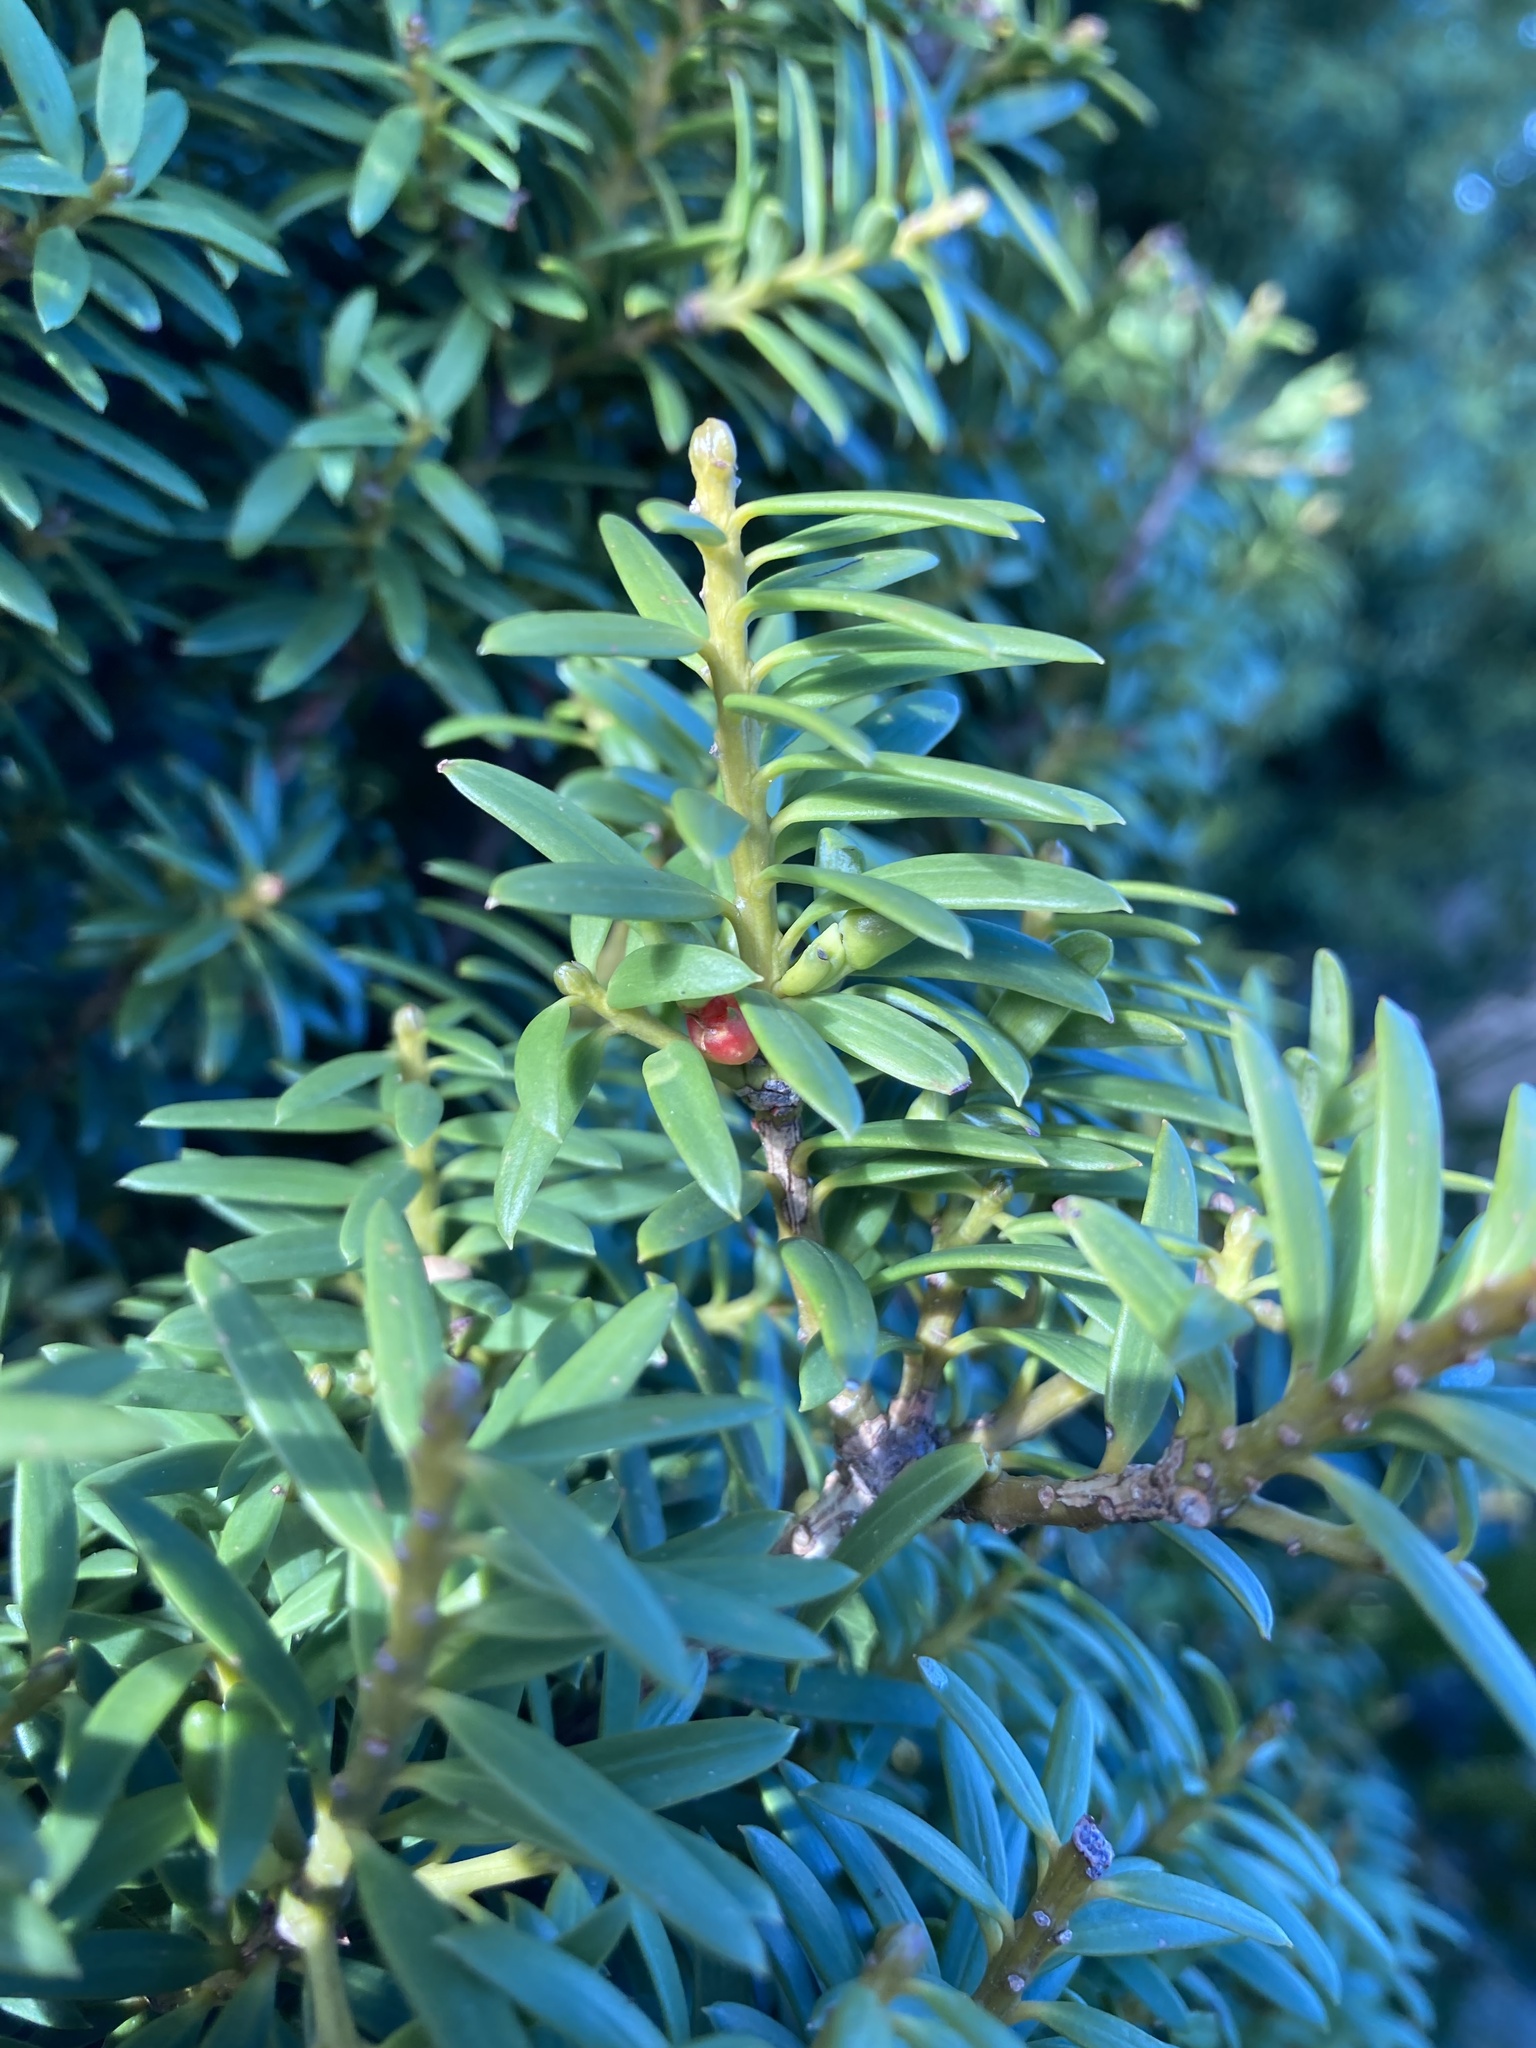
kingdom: Plantae
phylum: Tracheophyta
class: Pinopsida
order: Pinales
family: Podocarpaceae
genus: Podocarpus
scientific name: Podocarpus totara
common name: Totara
